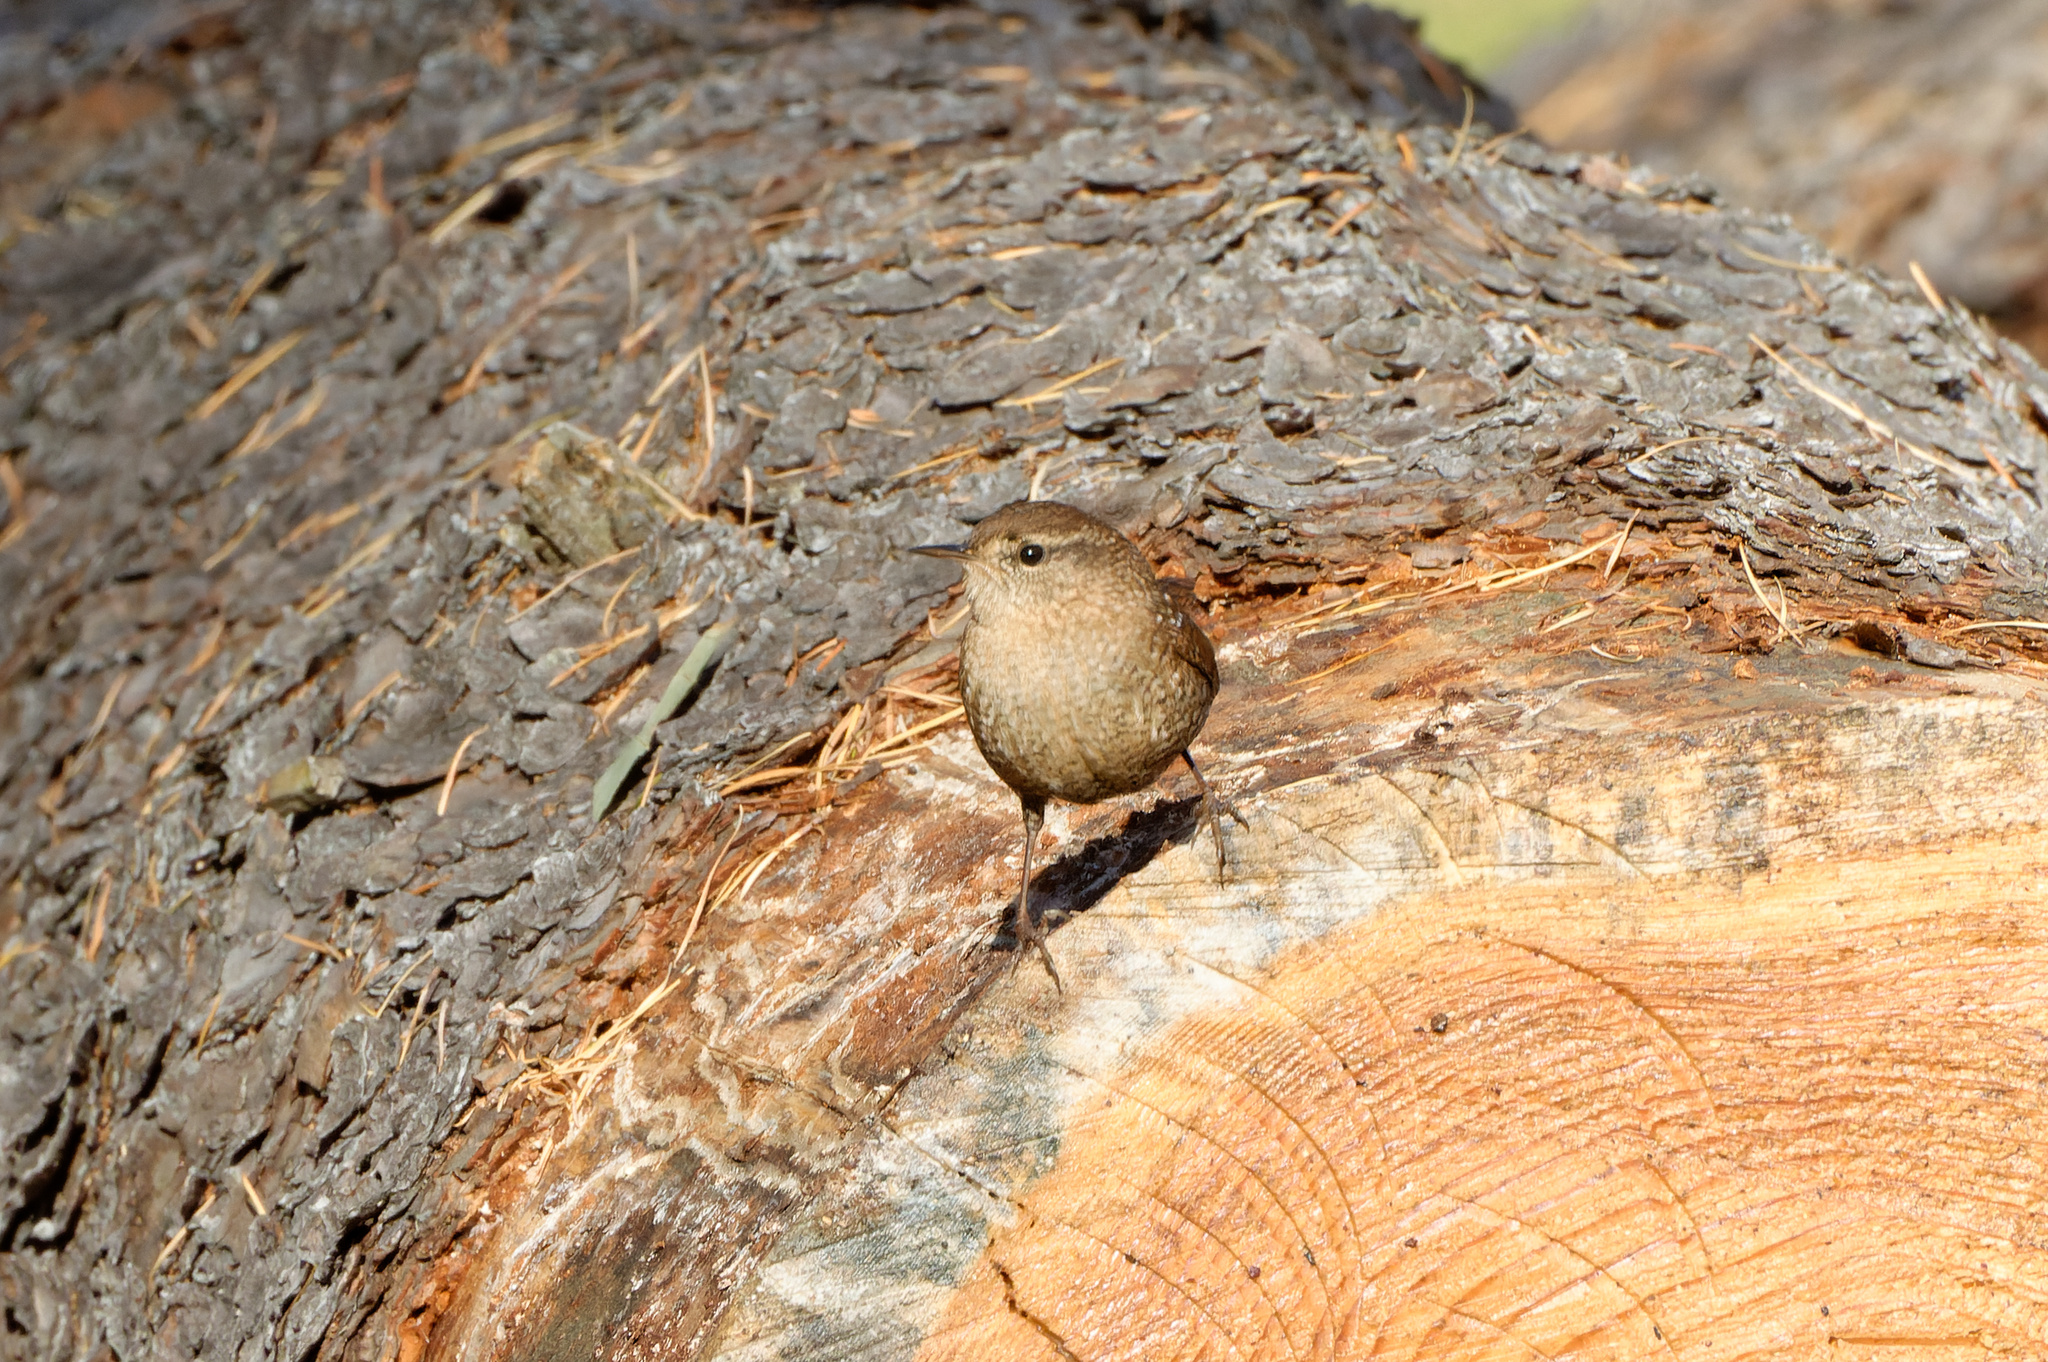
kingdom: Animalia
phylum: Chordata
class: Aves
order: Passeriformes
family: Troglodytidae
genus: Troglodytes
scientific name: Troglodytes hiemalis
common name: Winter wren
